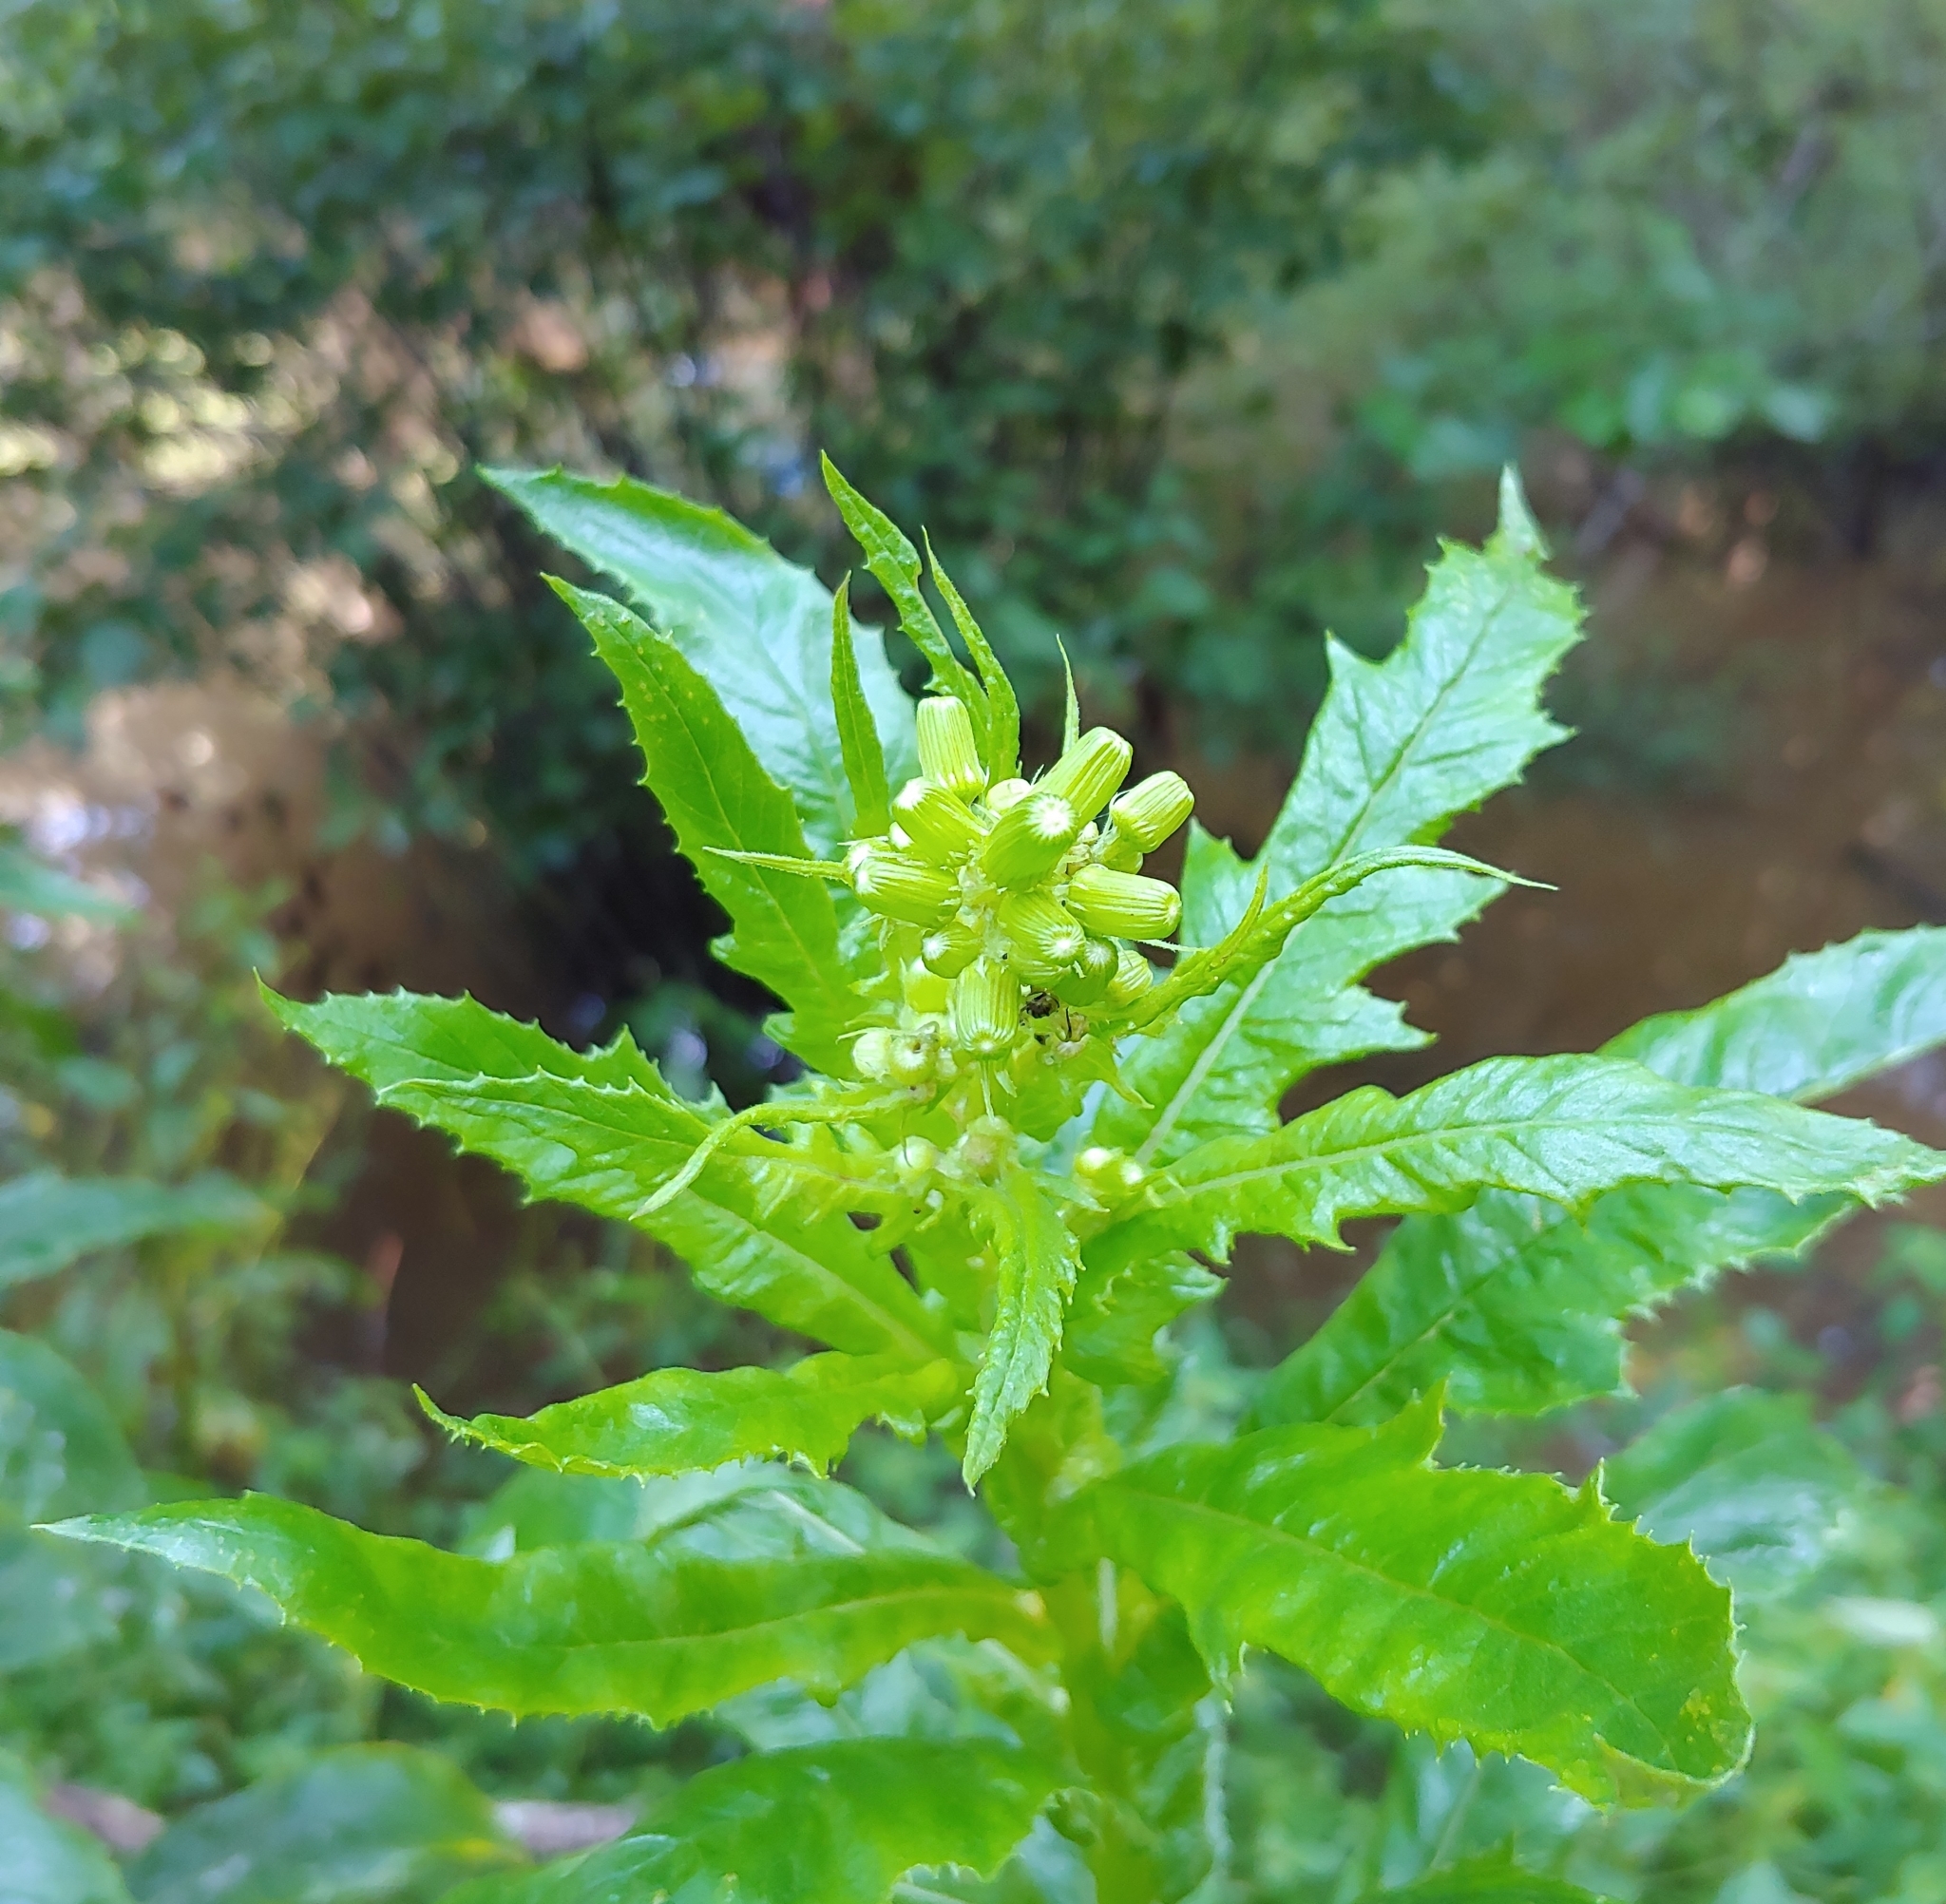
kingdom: Plantae
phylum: Tracheophyta
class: Magnoliopsida
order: Asterales
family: Asteraceae
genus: Erechtites
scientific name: Erechtites hieraciifolius
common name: American burnweed
